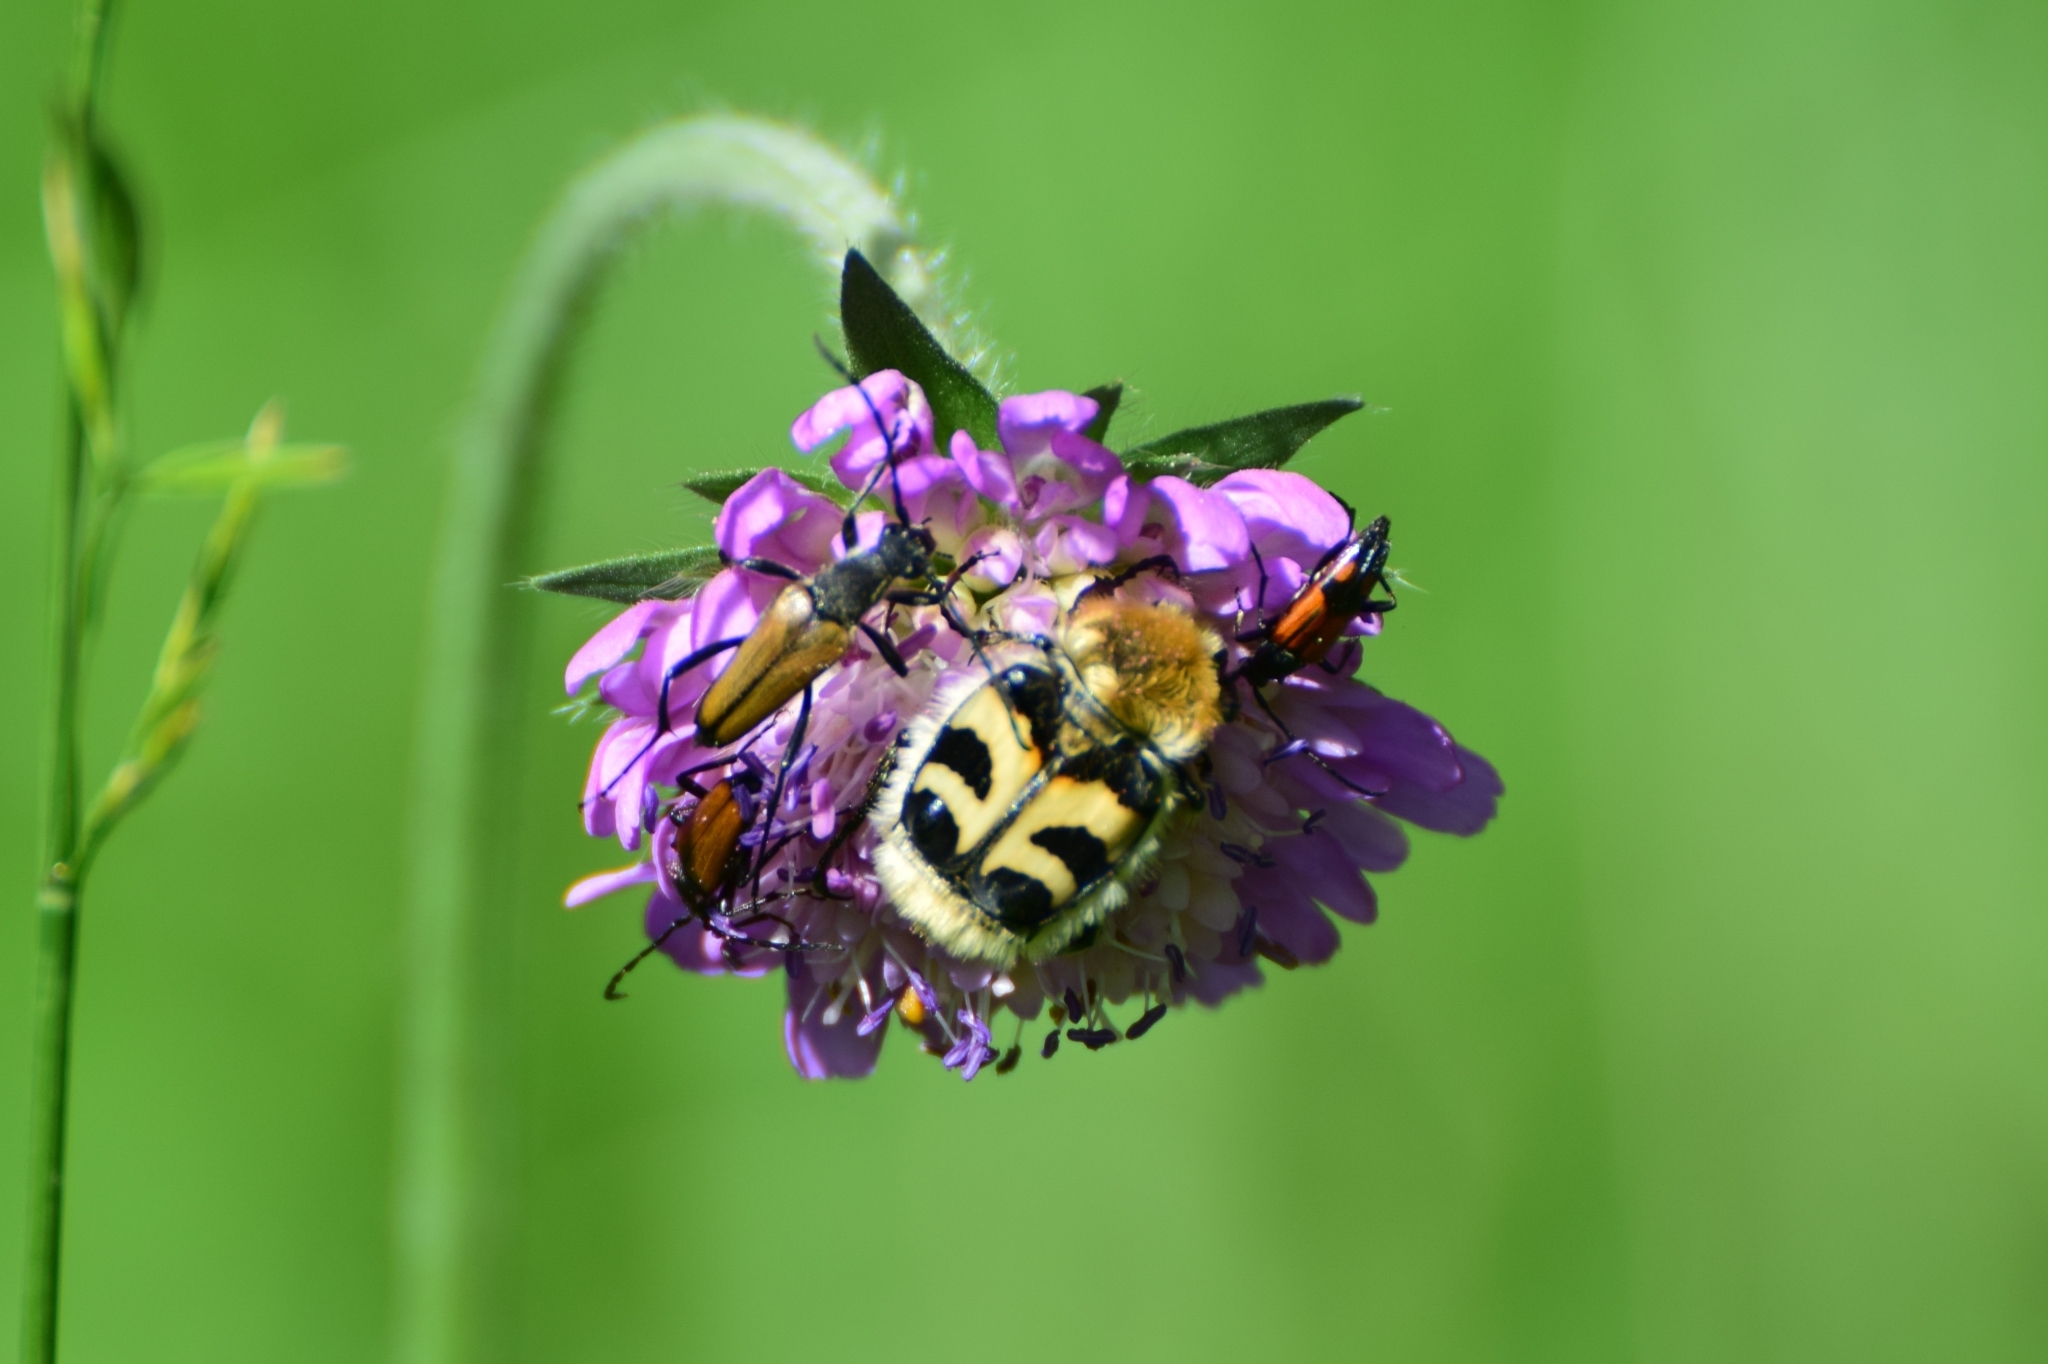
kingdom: Animalia
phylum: Arthropoda
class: Insecta
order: Coleoptera
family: Scarabaeidae
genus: Trichius
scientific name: Trichius fasciatus
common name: Bee beetle
